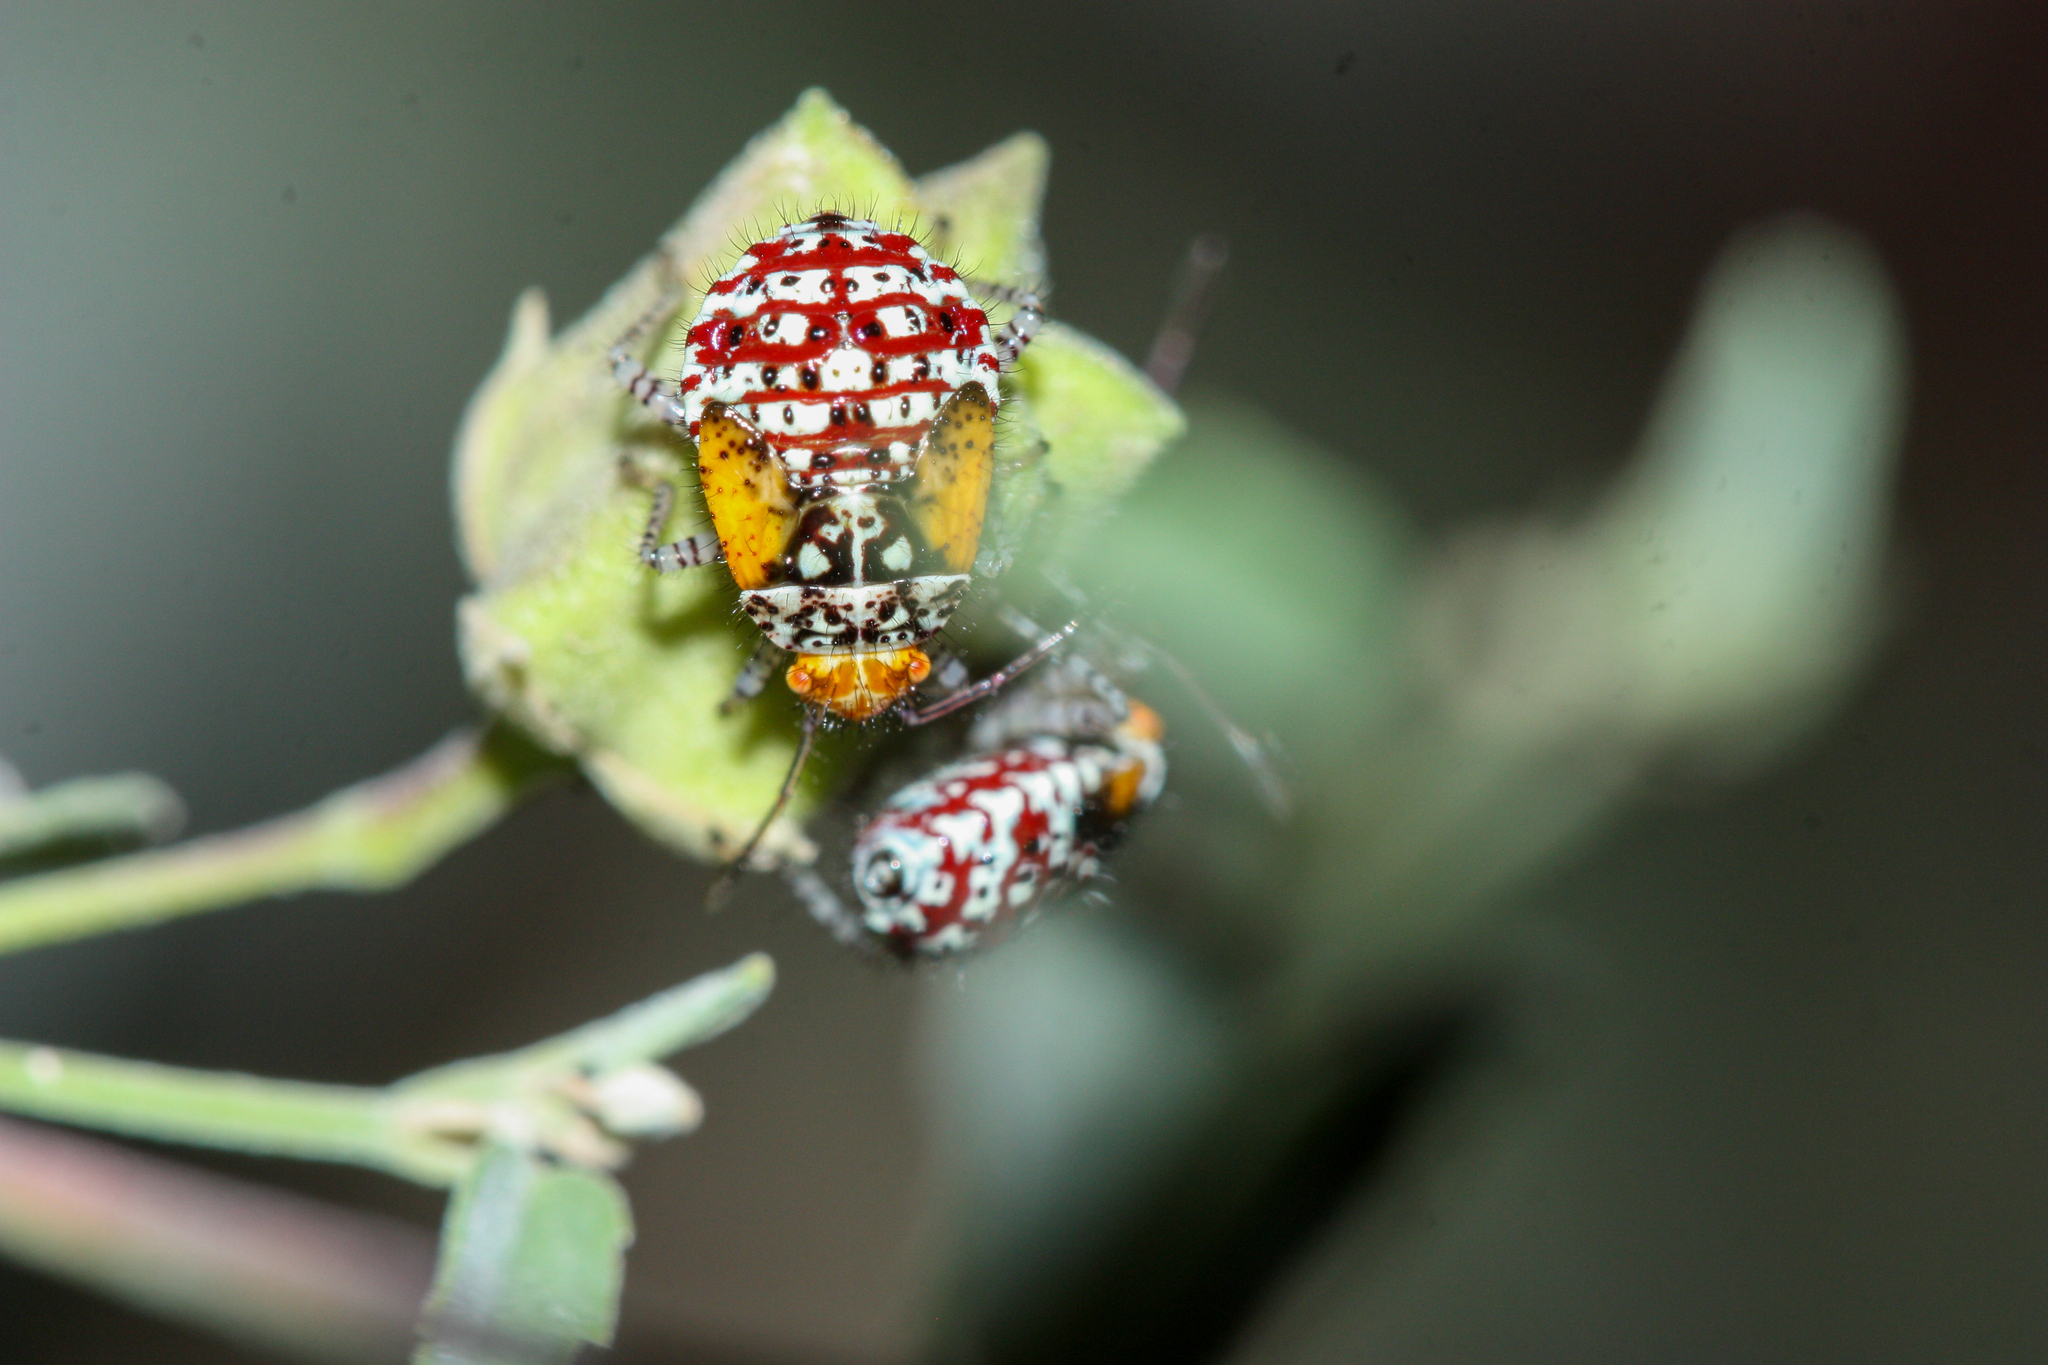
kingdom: Animalia
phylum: Arthropoda
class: Insecta
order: Hemiptera
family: Rhopalidae
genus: Niesthrea
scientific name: Niesthrea louisianica
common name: Scentless plant bug
